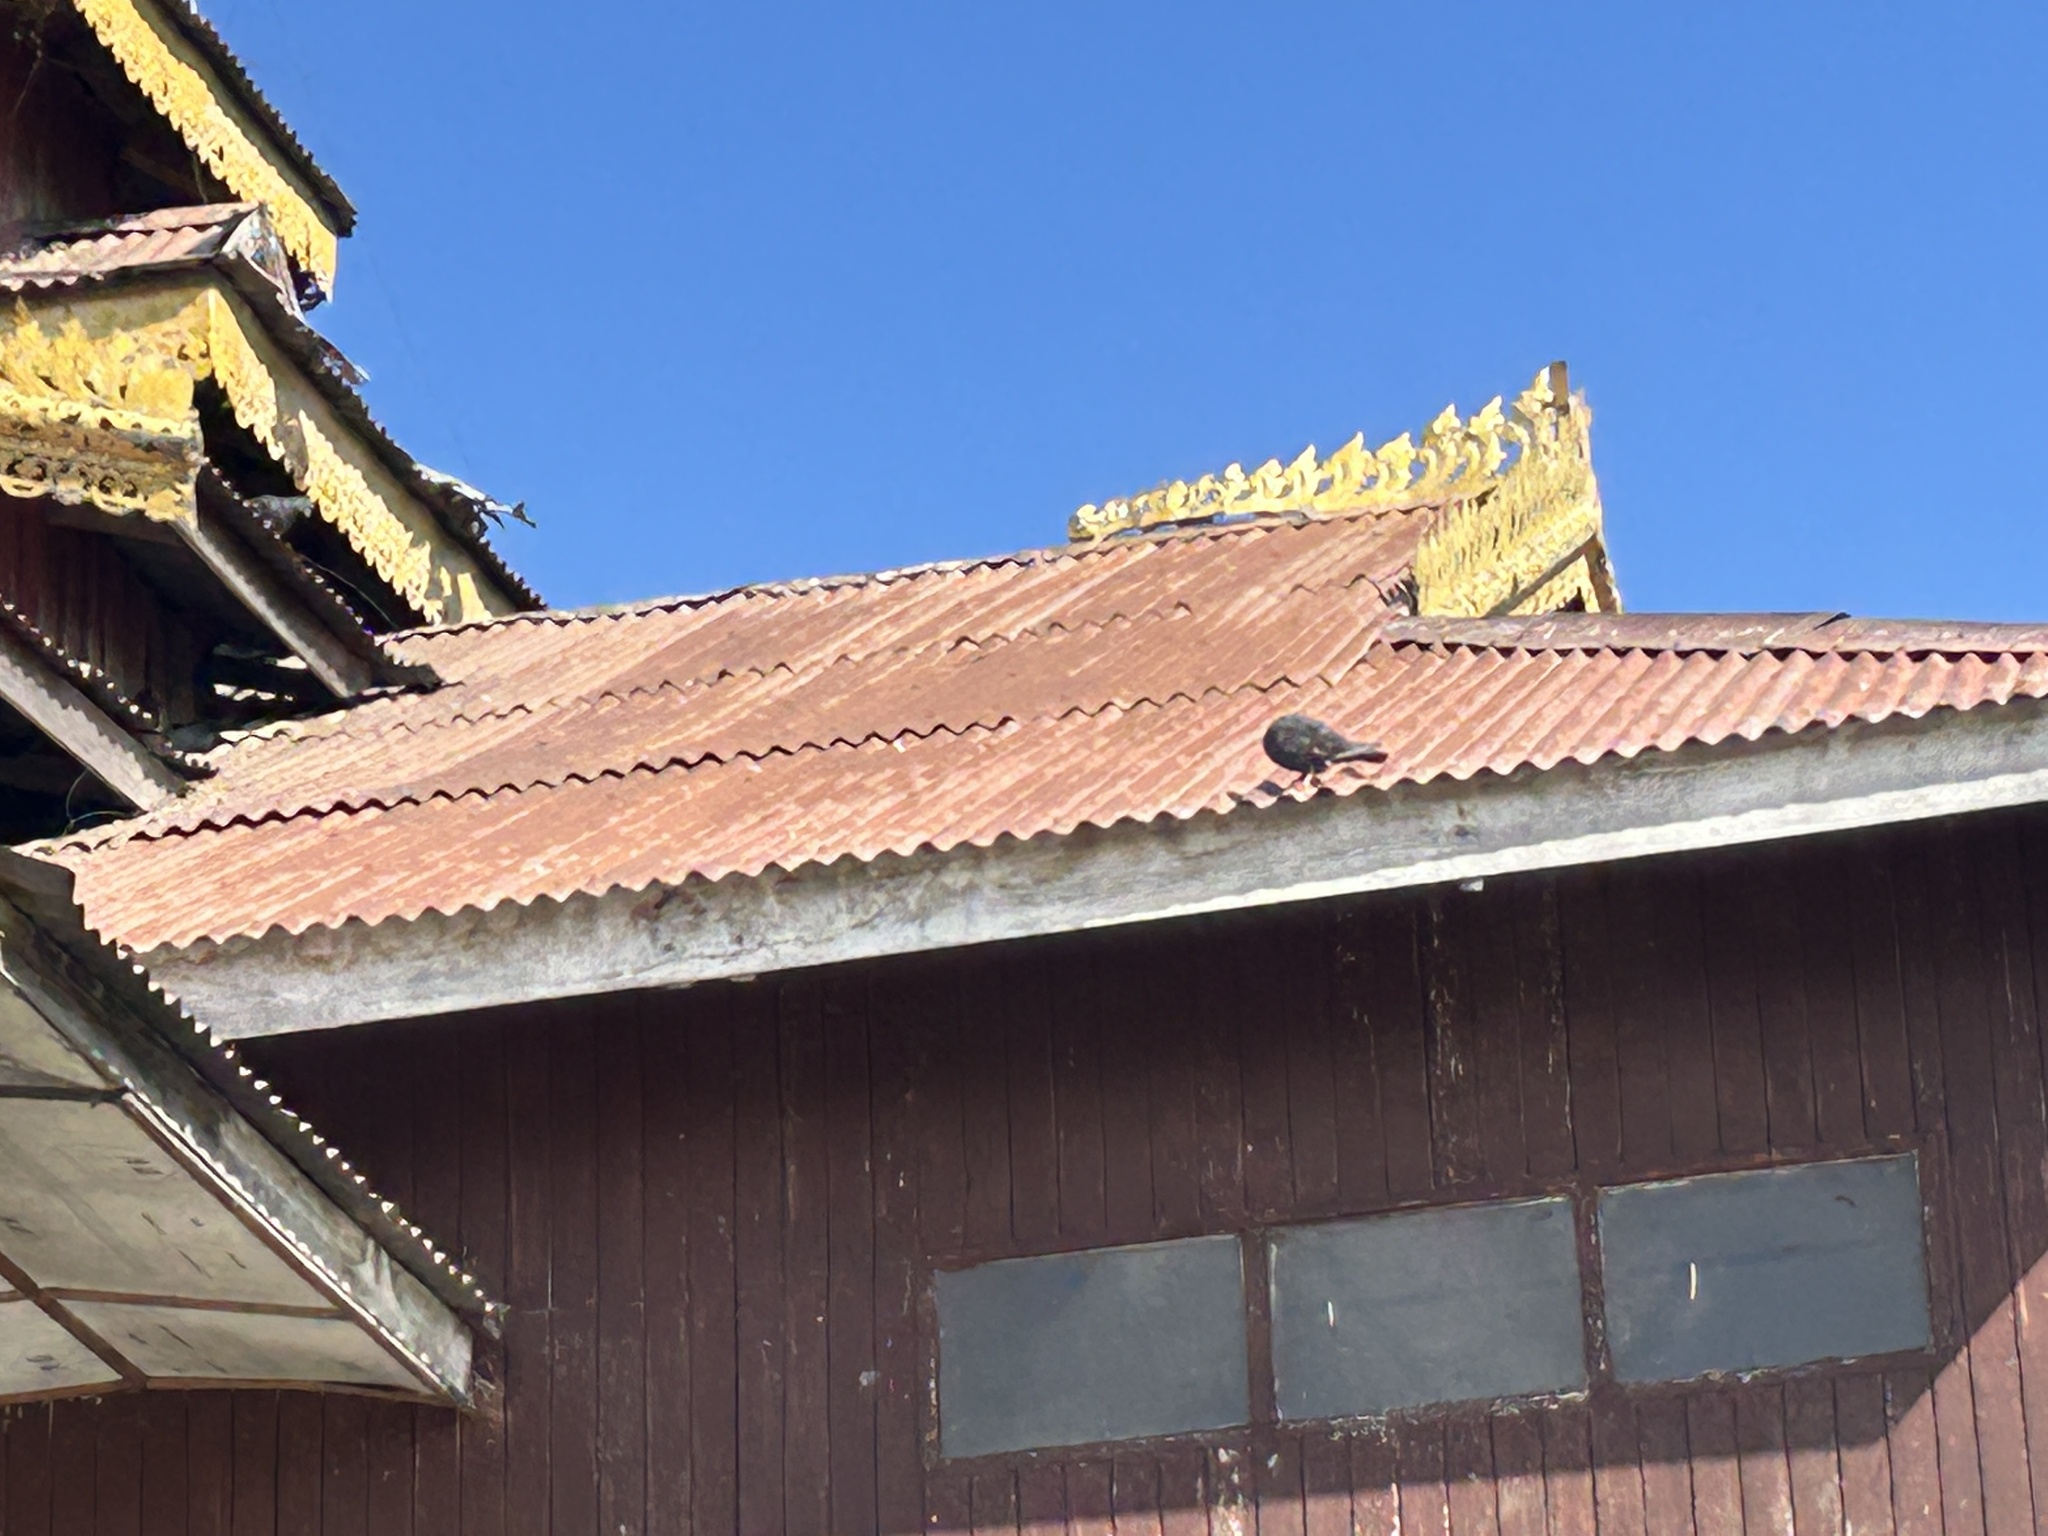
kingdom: Animalia
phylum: Chordata
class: Aves
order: Columbiformes
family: Columbidae
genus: Columba
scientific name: Columba livia
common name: Rock pigeon
